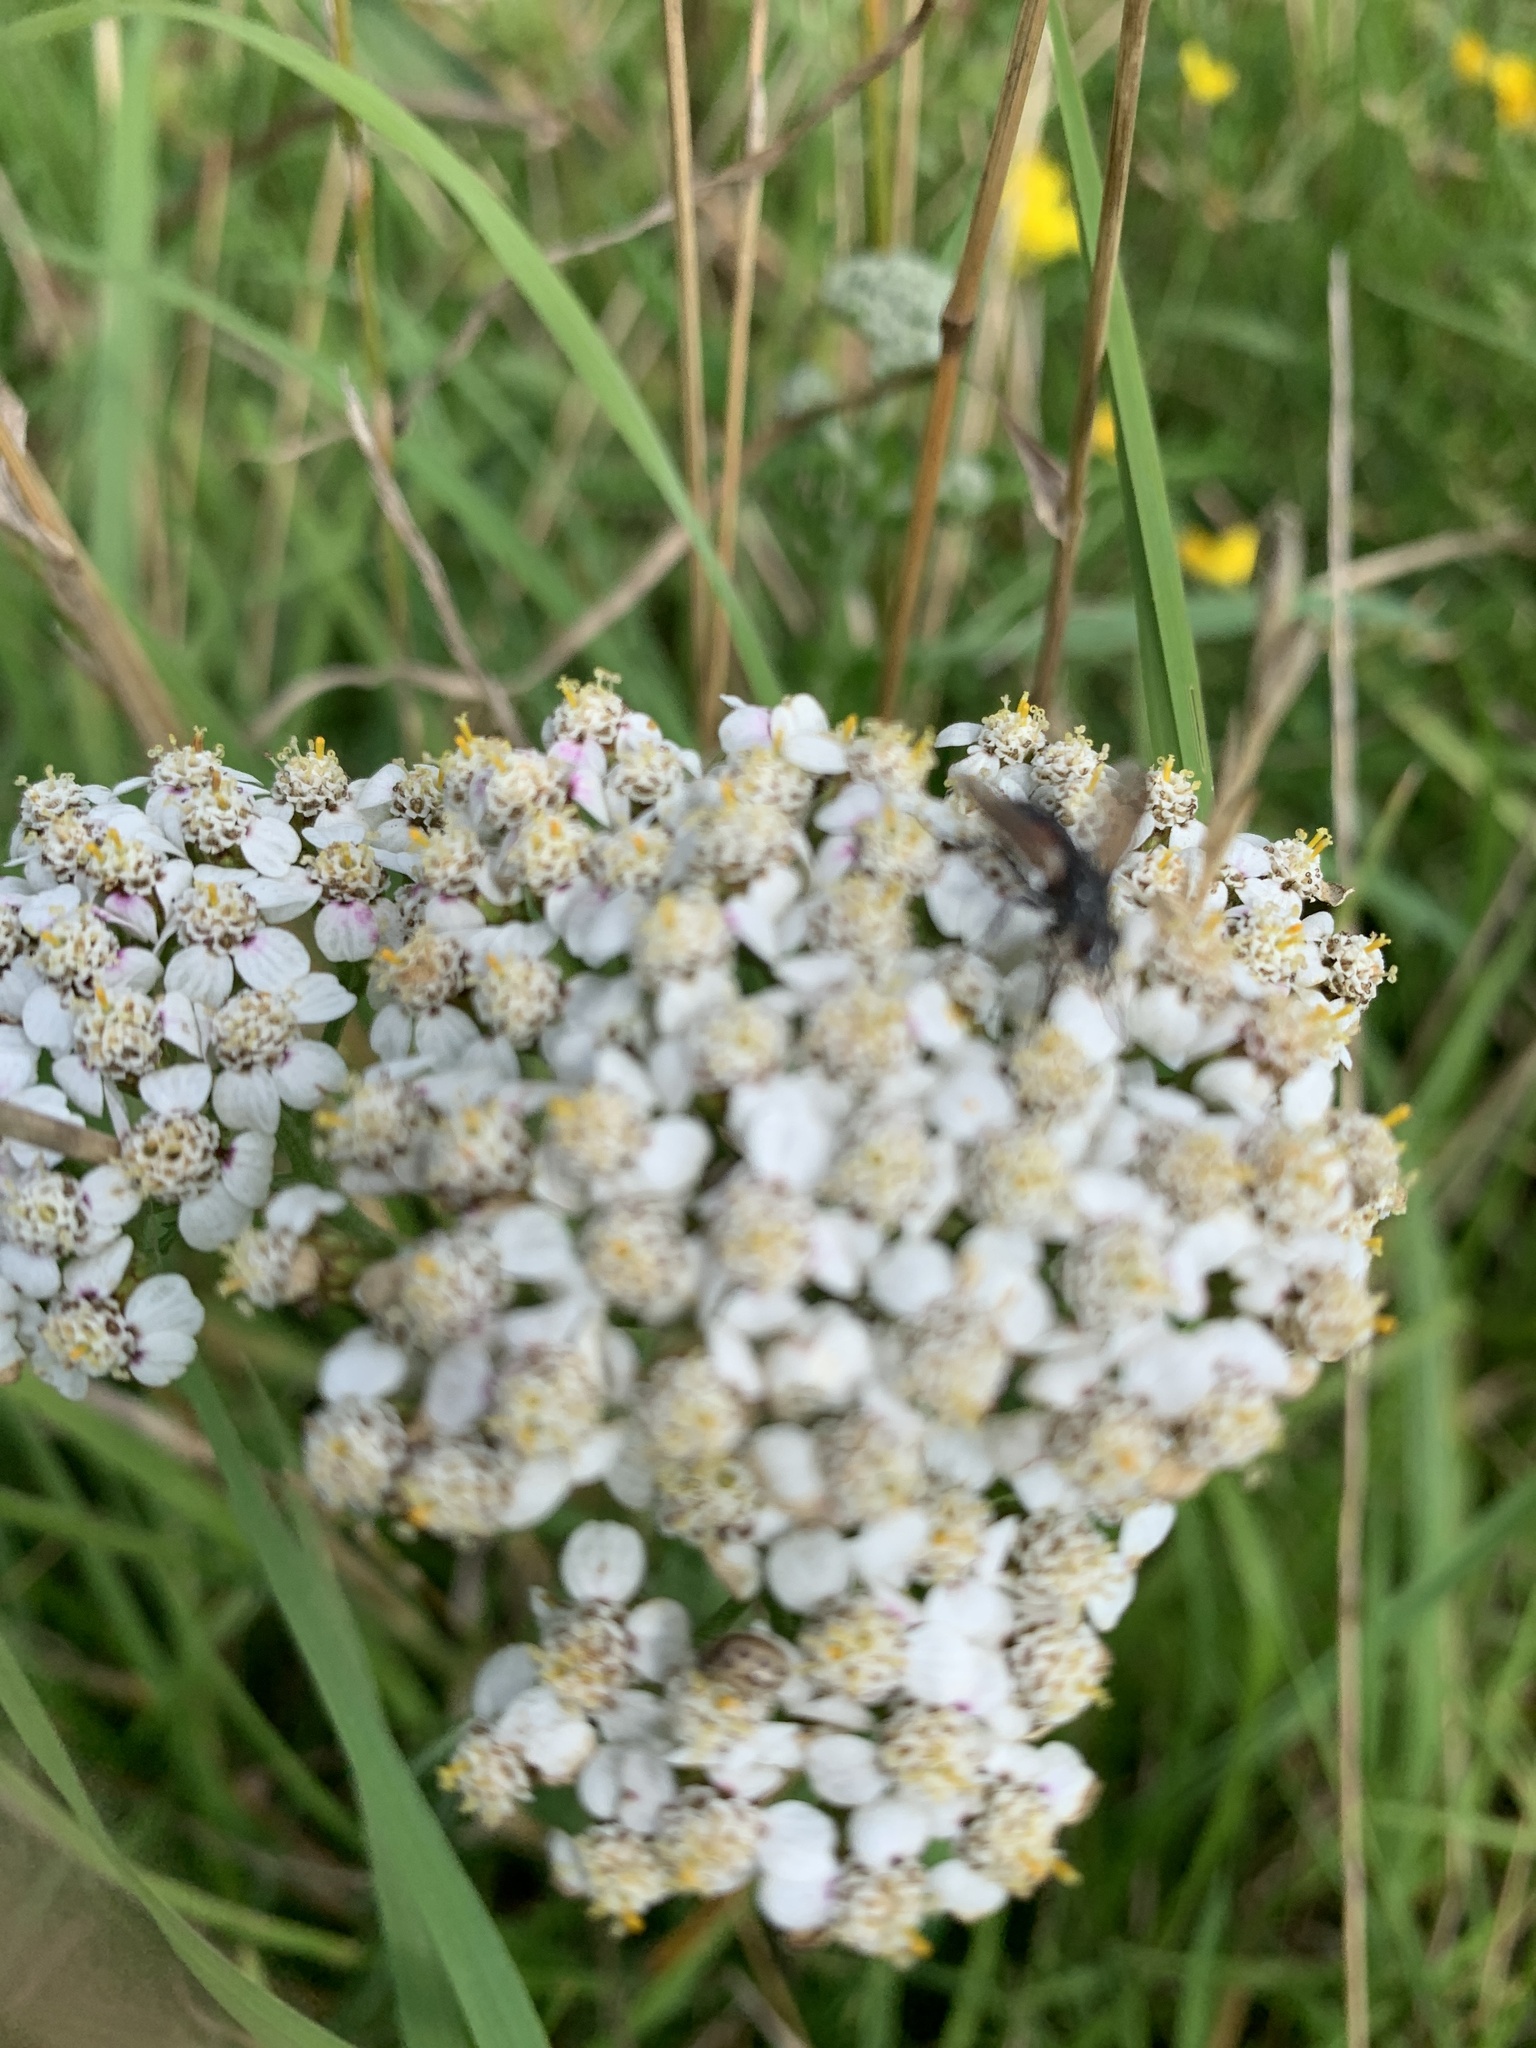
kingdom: Plantae
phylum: Tracheophyta
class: Magnoliopsida
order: Asterales
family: Asteraceae
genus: Achillea
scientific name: Achillea millefolium
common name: Yarrow
